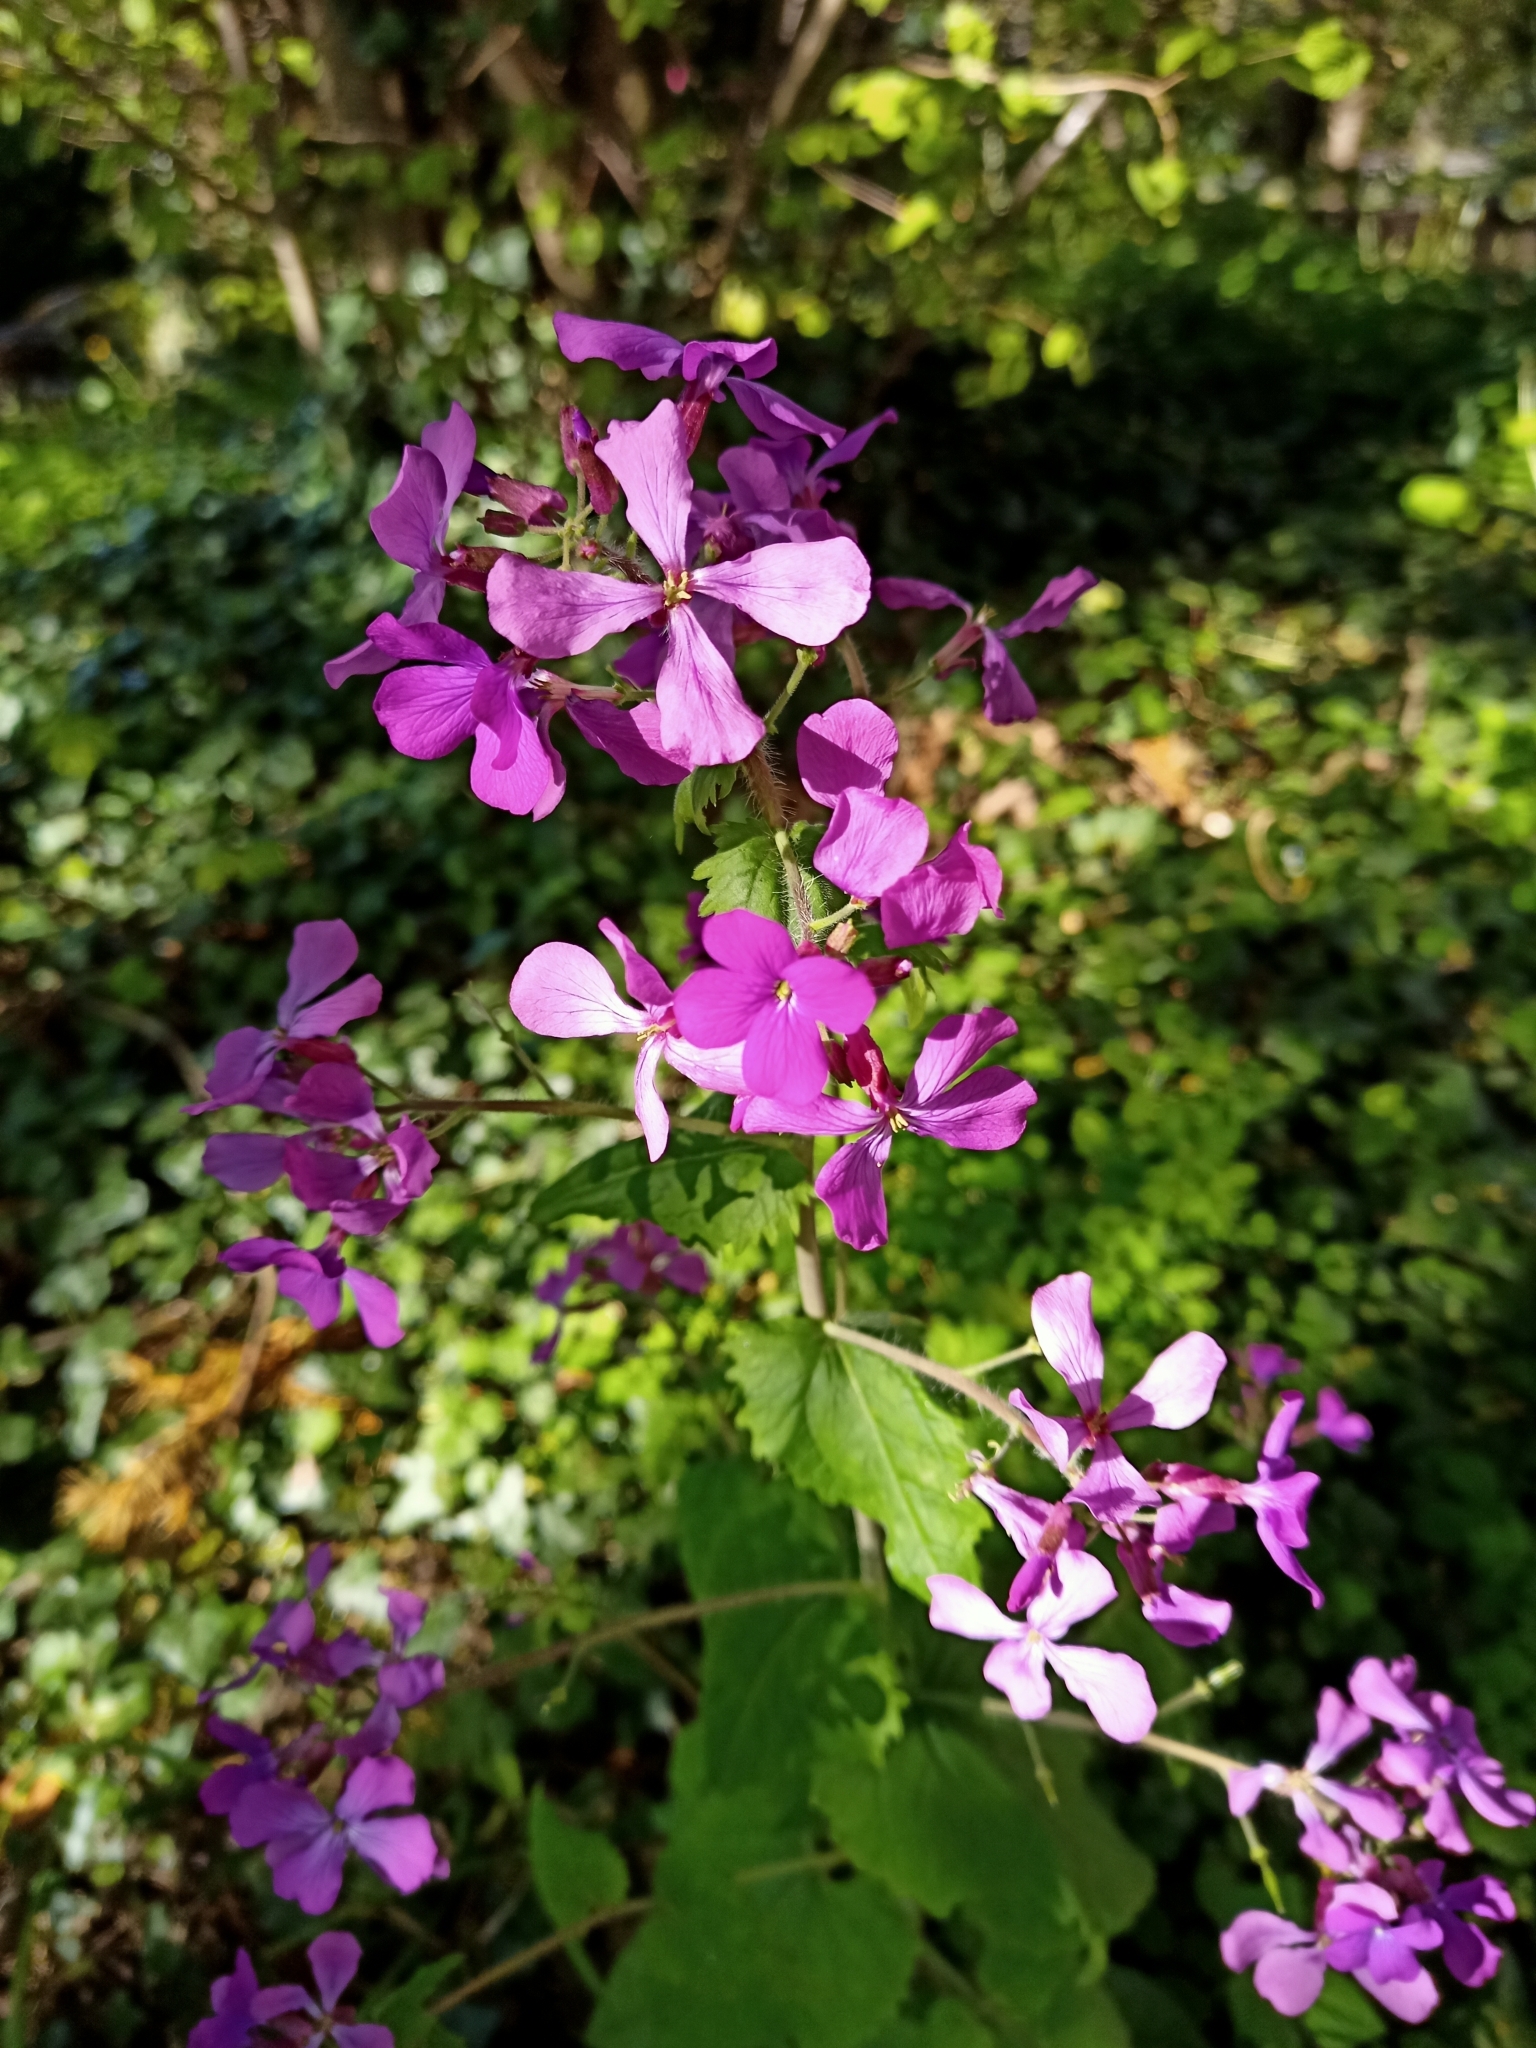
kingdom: Plantae
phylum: Tracheophyta
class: Magnoliopsida
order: Brassicales
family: Brassicaceae
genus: Lunaria
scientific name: Lunaria annua
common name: Honesty
